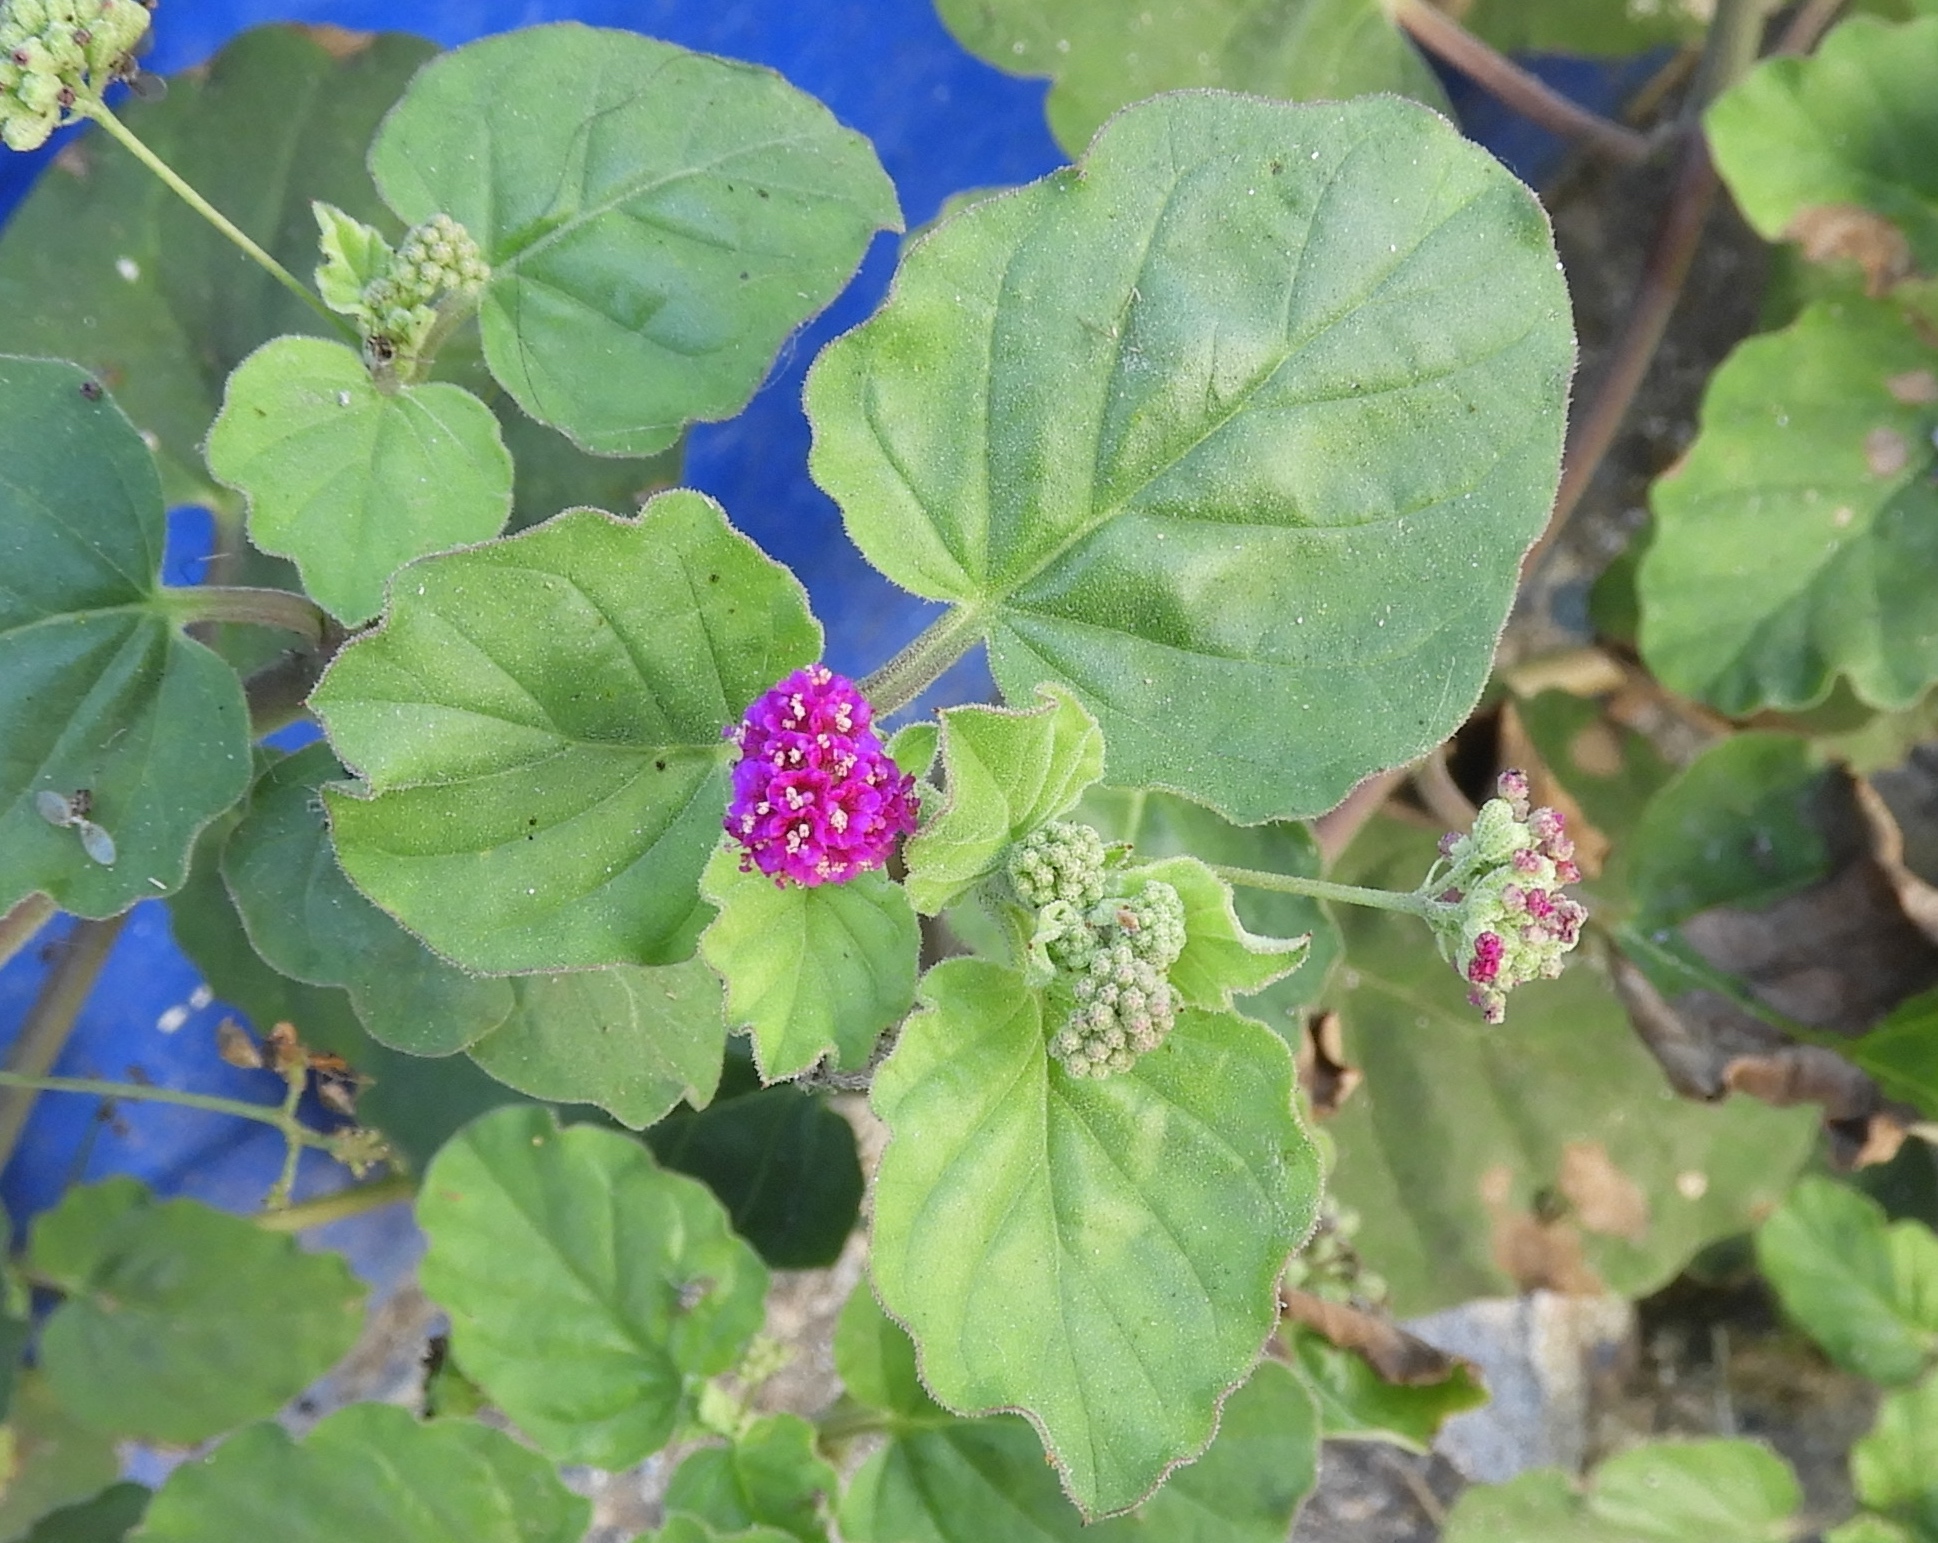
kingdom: Plantae
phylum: Tracheophyta
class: Magnoliopsida
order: Caryophyllales
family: Nyctaginaceae
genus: Boerhavia
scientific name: Boerhavia coccinea
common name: Scarlet spiderling
